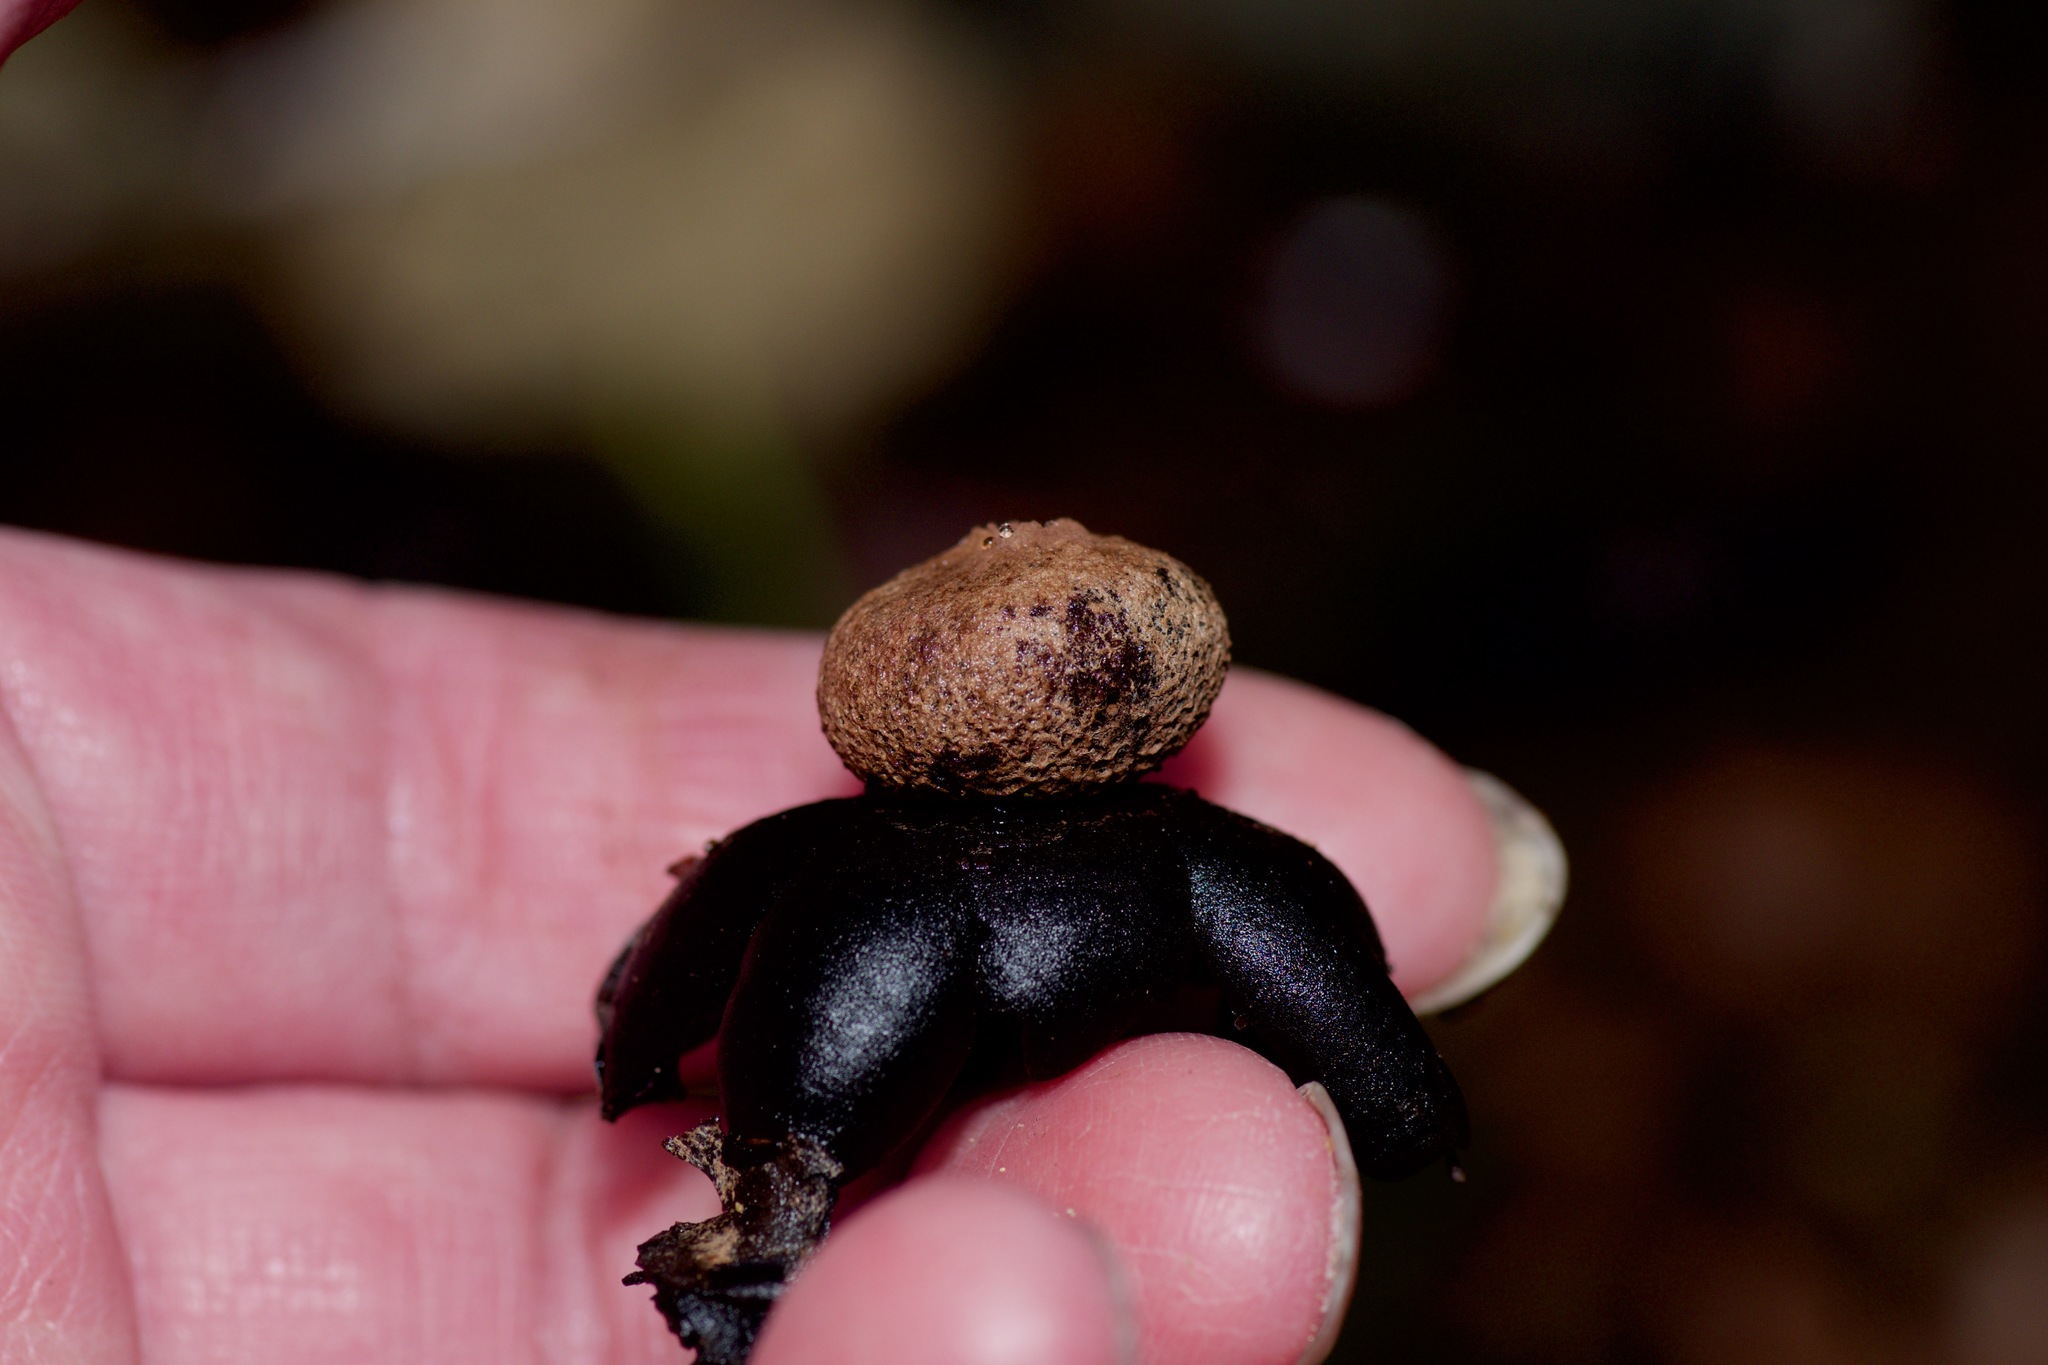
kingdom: Fungi
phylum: Basidiomycota
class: Agaricomycetes
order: Boletales
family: Diplocystidiaceae
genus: Astraeus
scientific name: Astraeus morganii
